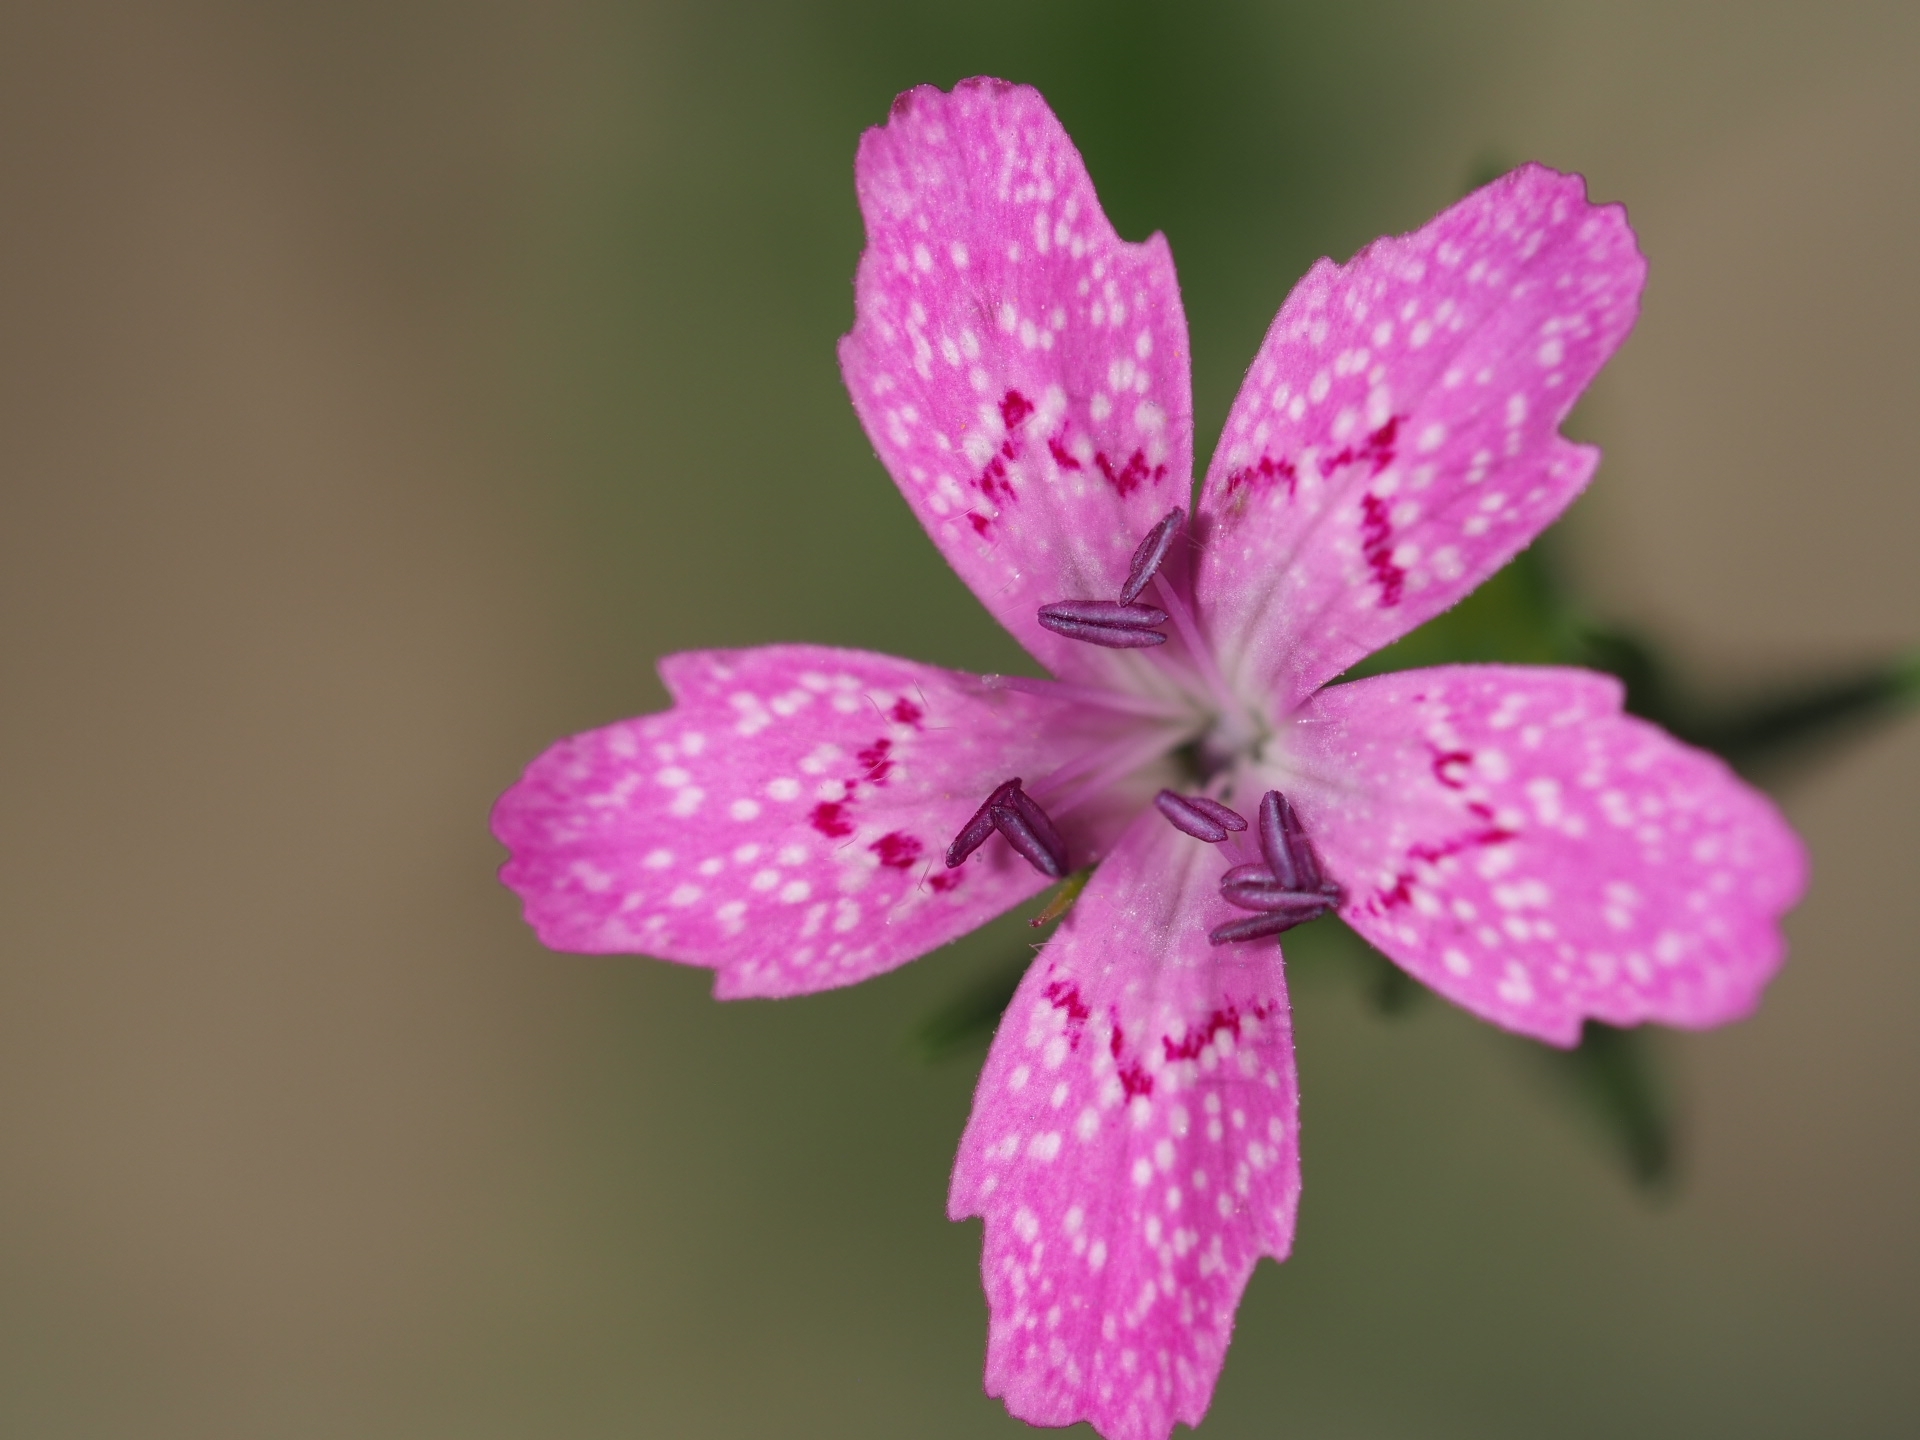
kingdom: Plantae
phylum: Tracheophyta
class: Magnoliopsida
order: Caryophyllales
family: Caryophyllaceae
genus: Dianthus
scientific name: Dianthus armeria
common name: Deptford pink
